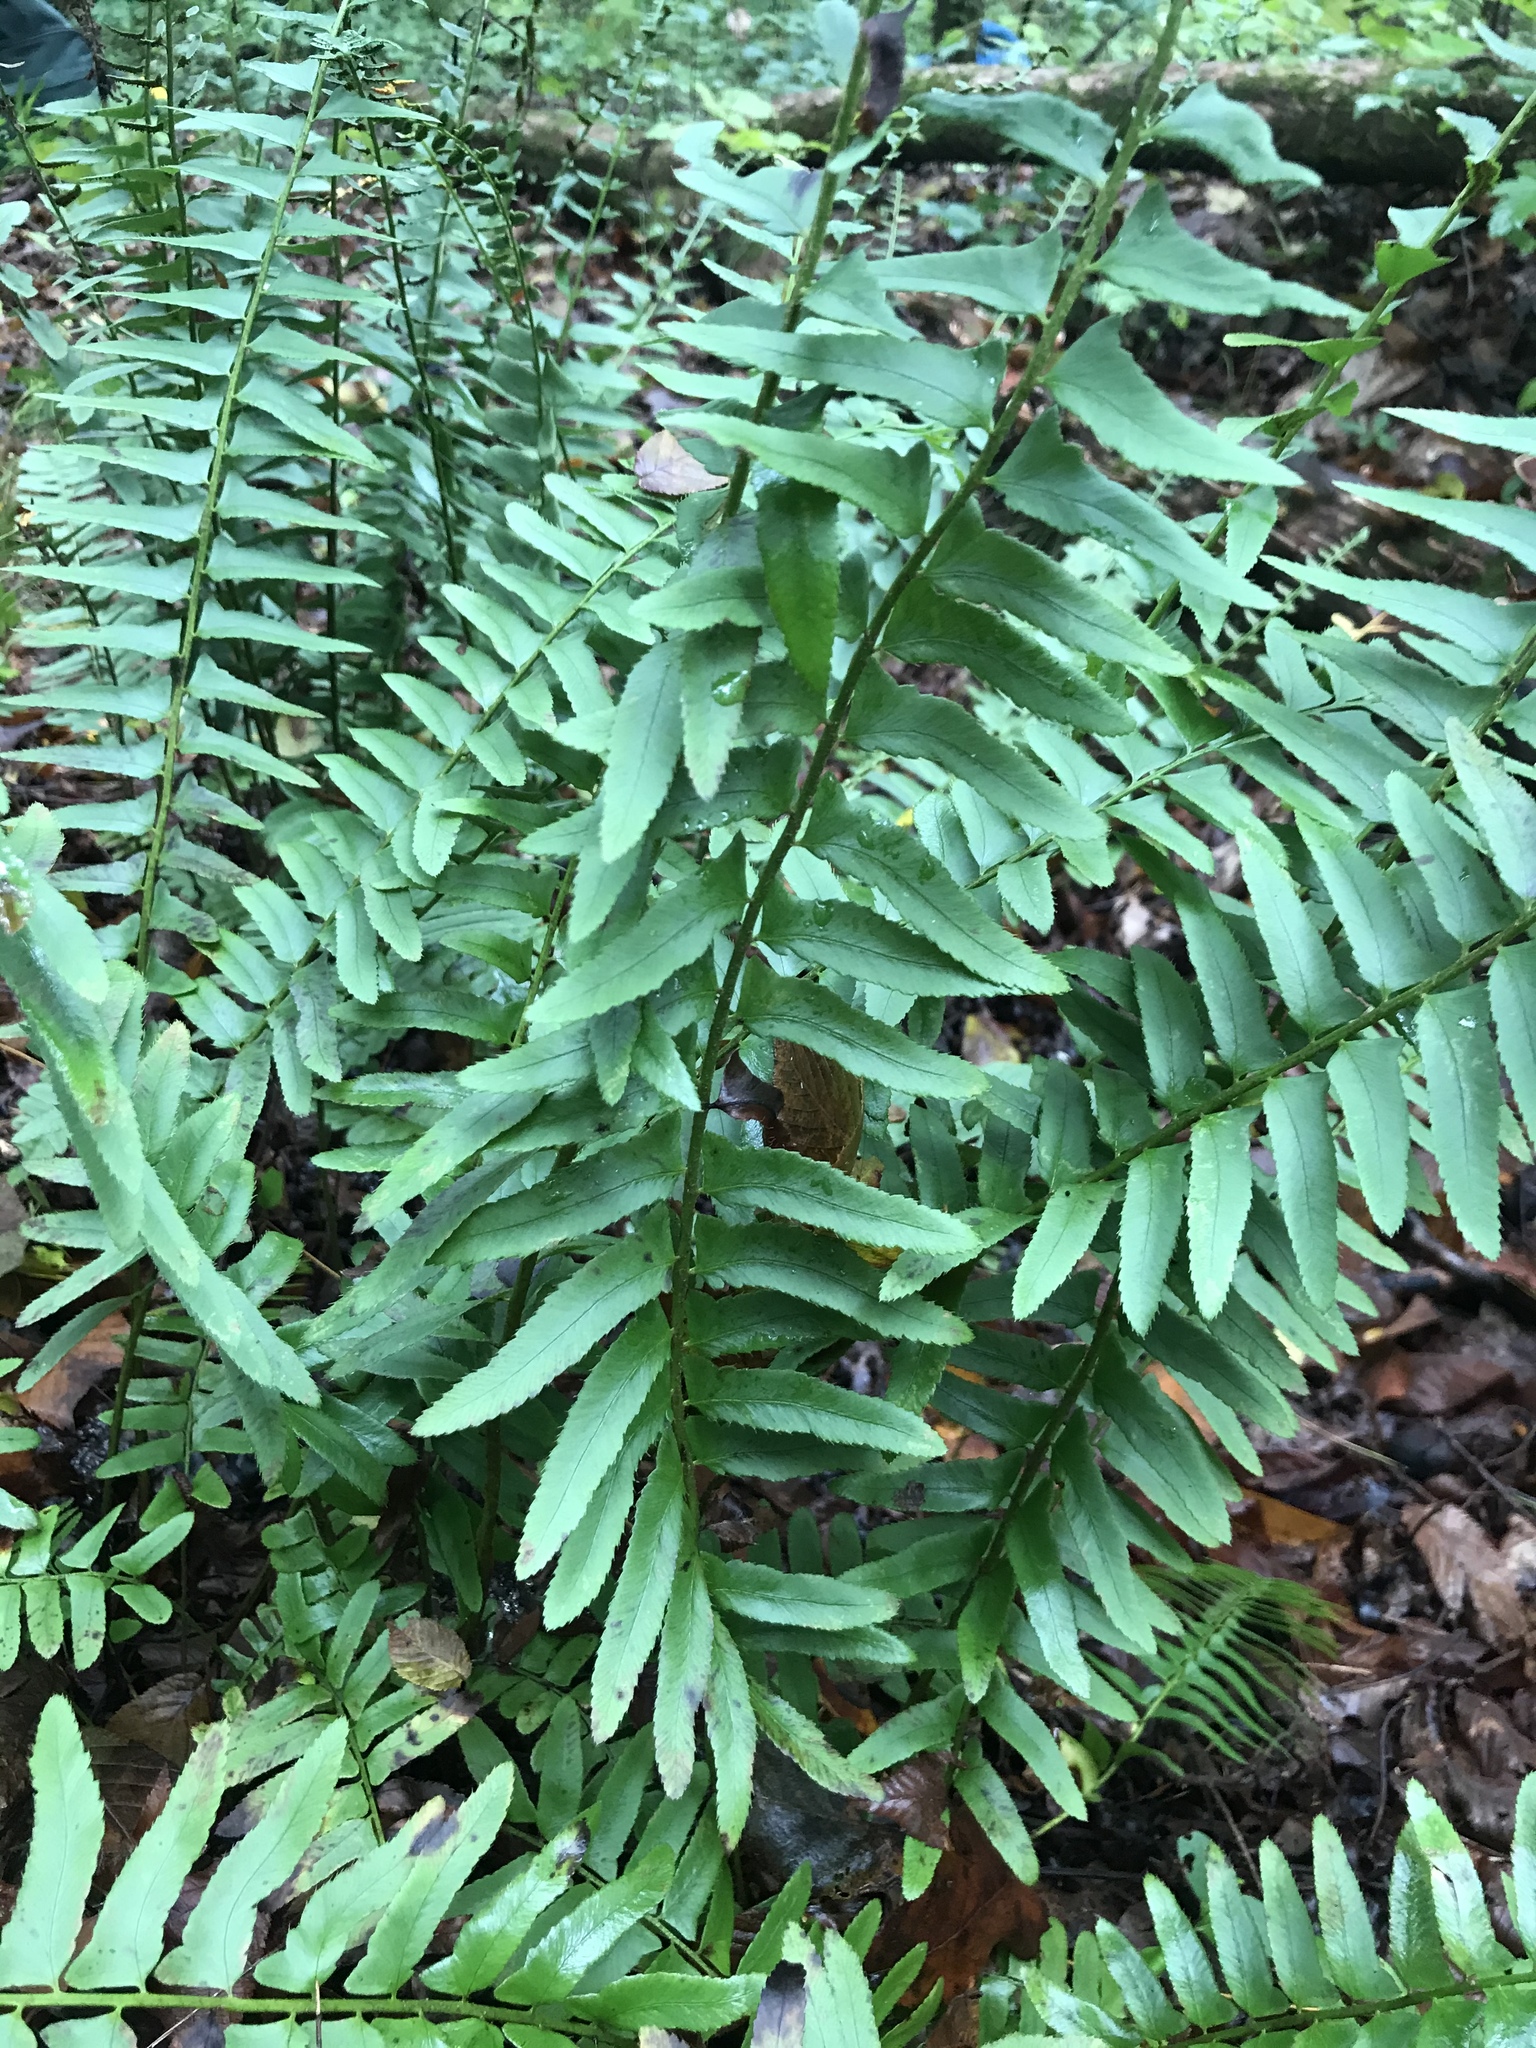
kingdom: Plantae
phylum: Tracheophyta
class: Polypodiopsida
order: Polypodiales
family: Dryopteridaceae
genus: Polystichum
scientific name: Polystichum acrostichoides
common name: Christmas fern
